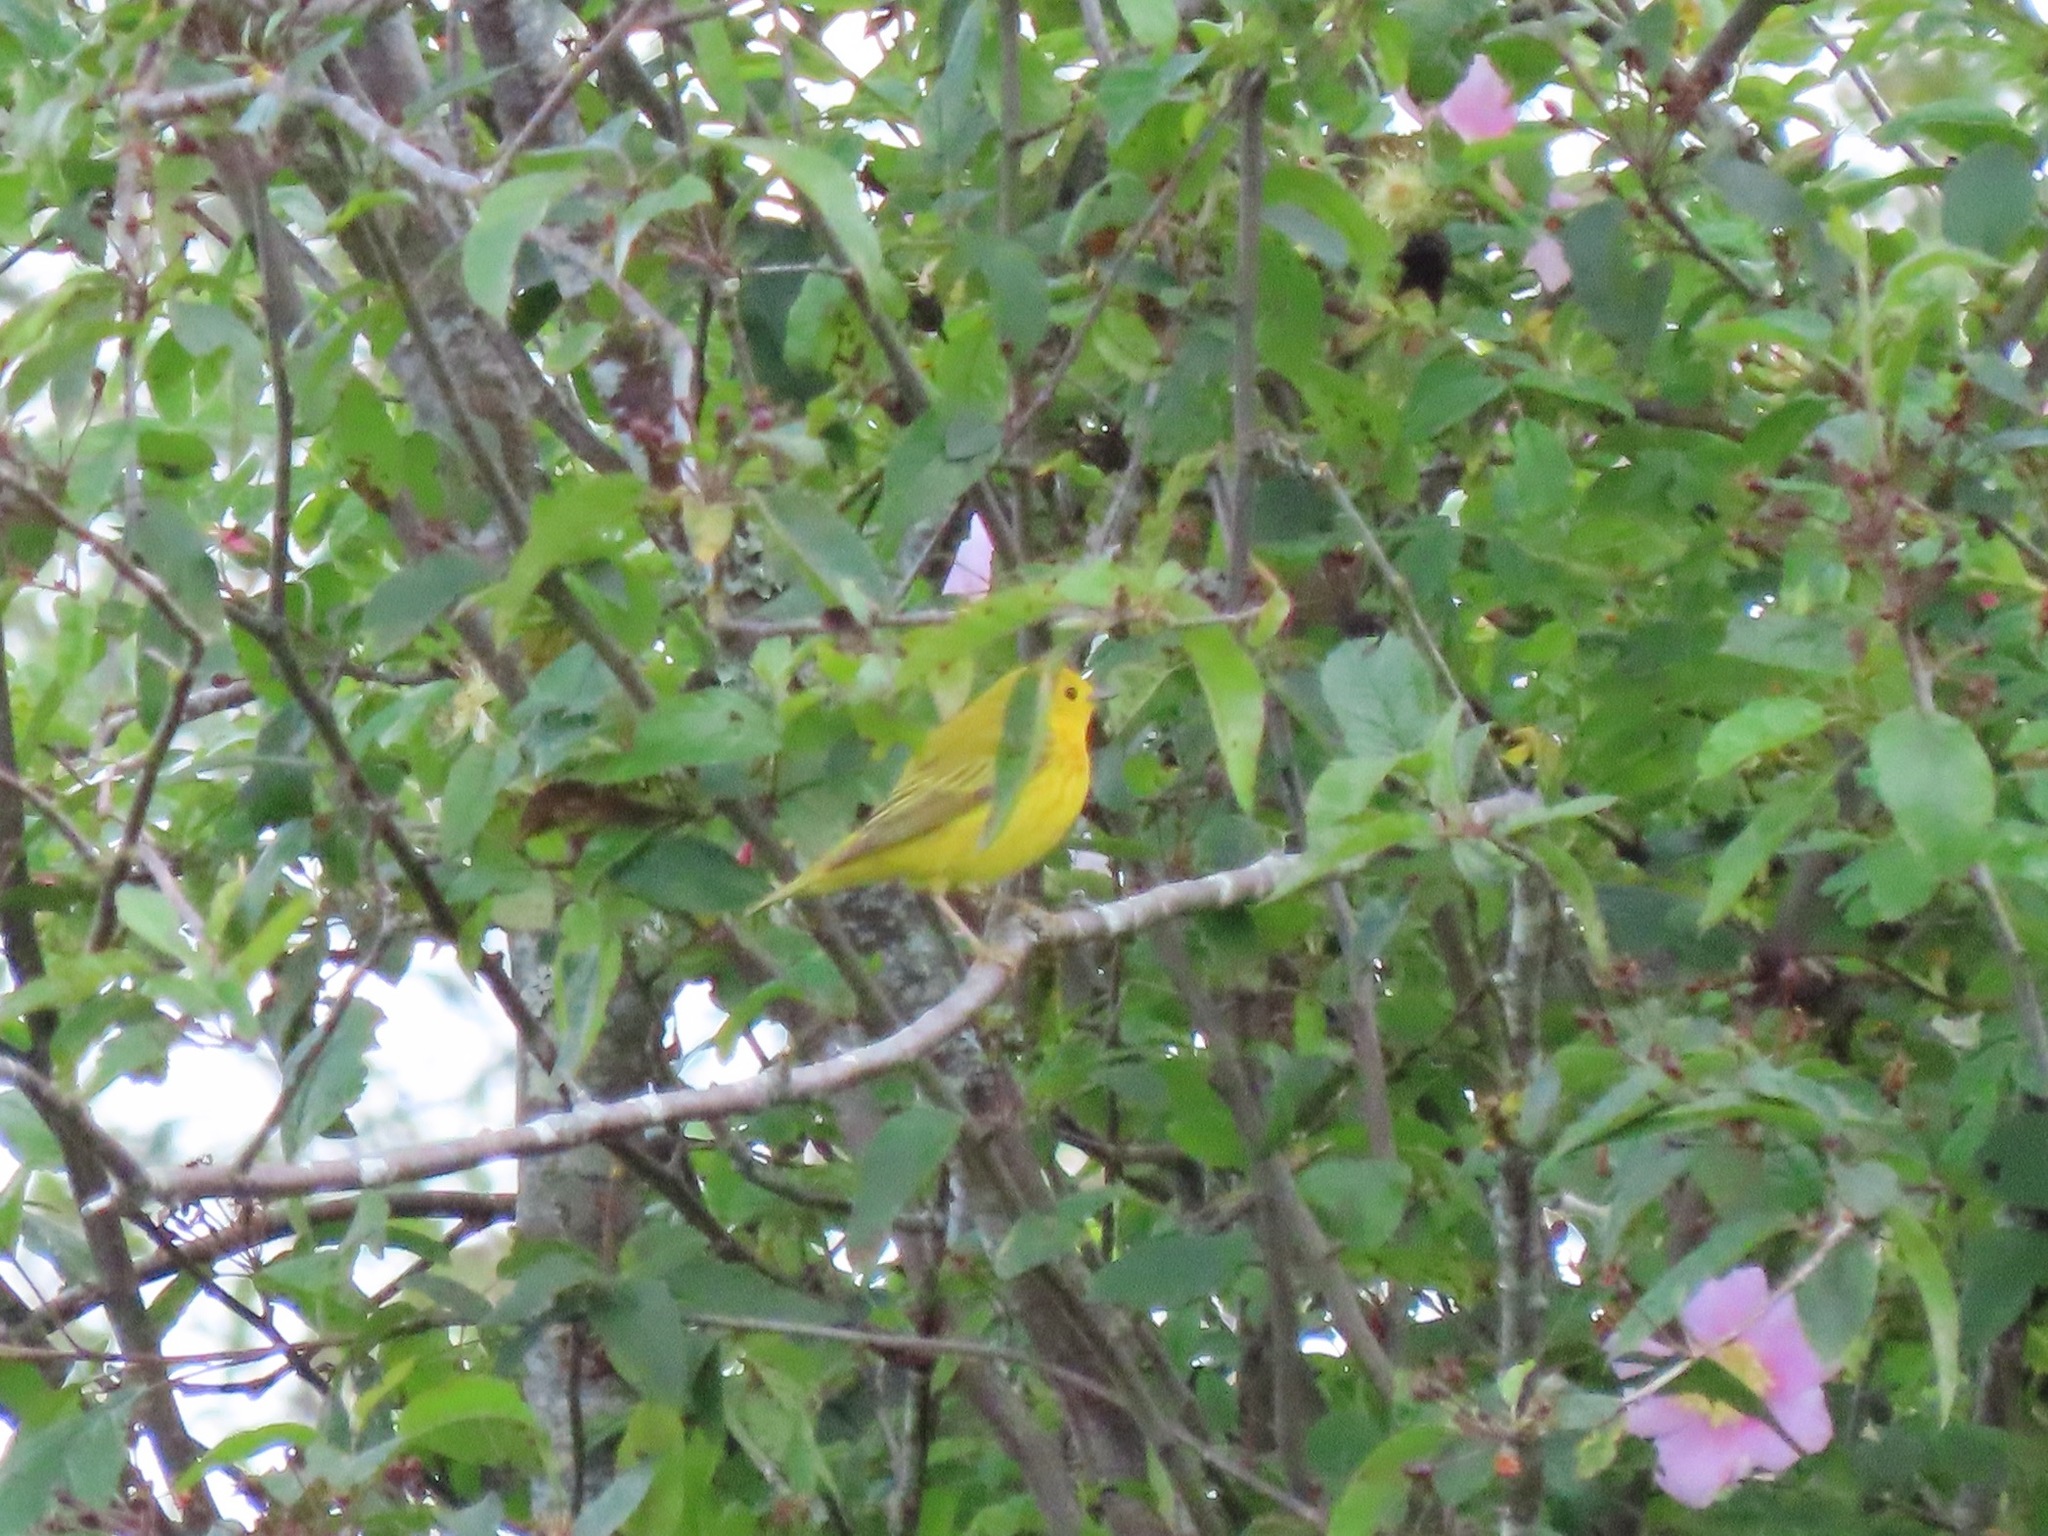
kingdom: Animalia
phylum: Chordata
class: Aves
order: Passeriformes
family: Parulidae
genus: Setophaga
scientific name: Setophaga petechia
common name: Yellow warbler
